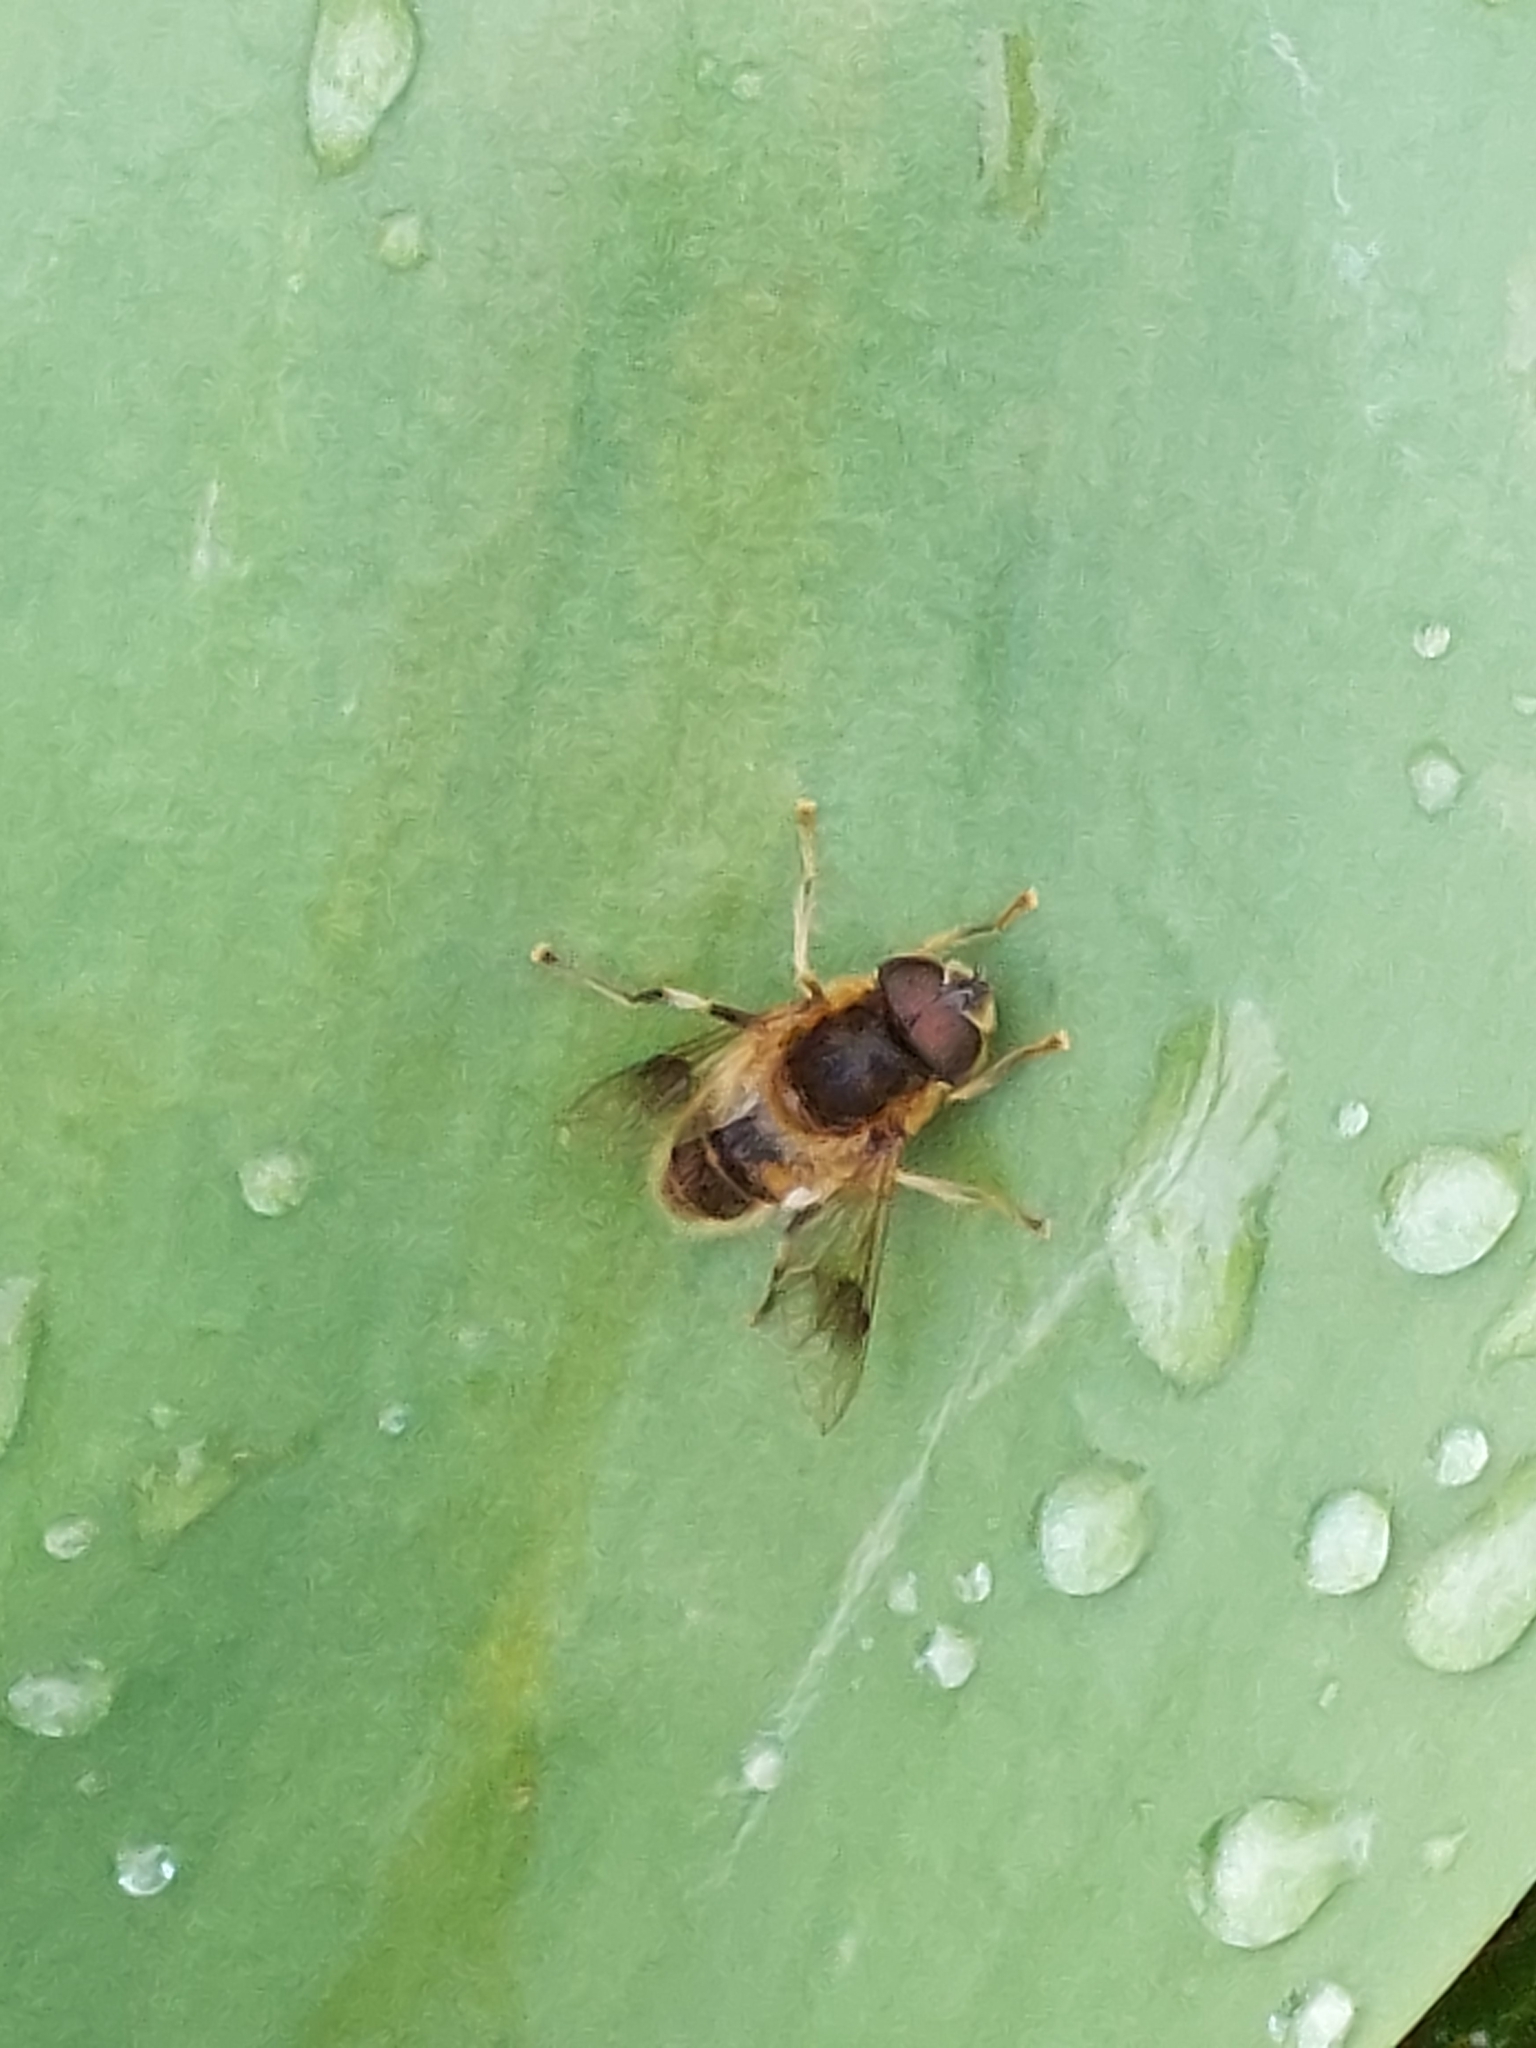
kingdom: Animalia
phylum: Arthropoda
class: Insecta
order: Diptera
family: Syrphidae
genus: Eristalis
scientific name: Eristalis pertinax
